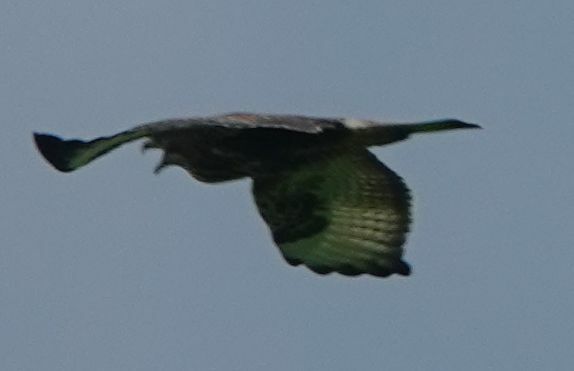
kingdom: Animalia
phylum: Chordata
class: Aves
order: Accipitriformes
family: Accipitridae
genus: Buteo
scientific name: Buteo buteo
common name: Common buzzard
